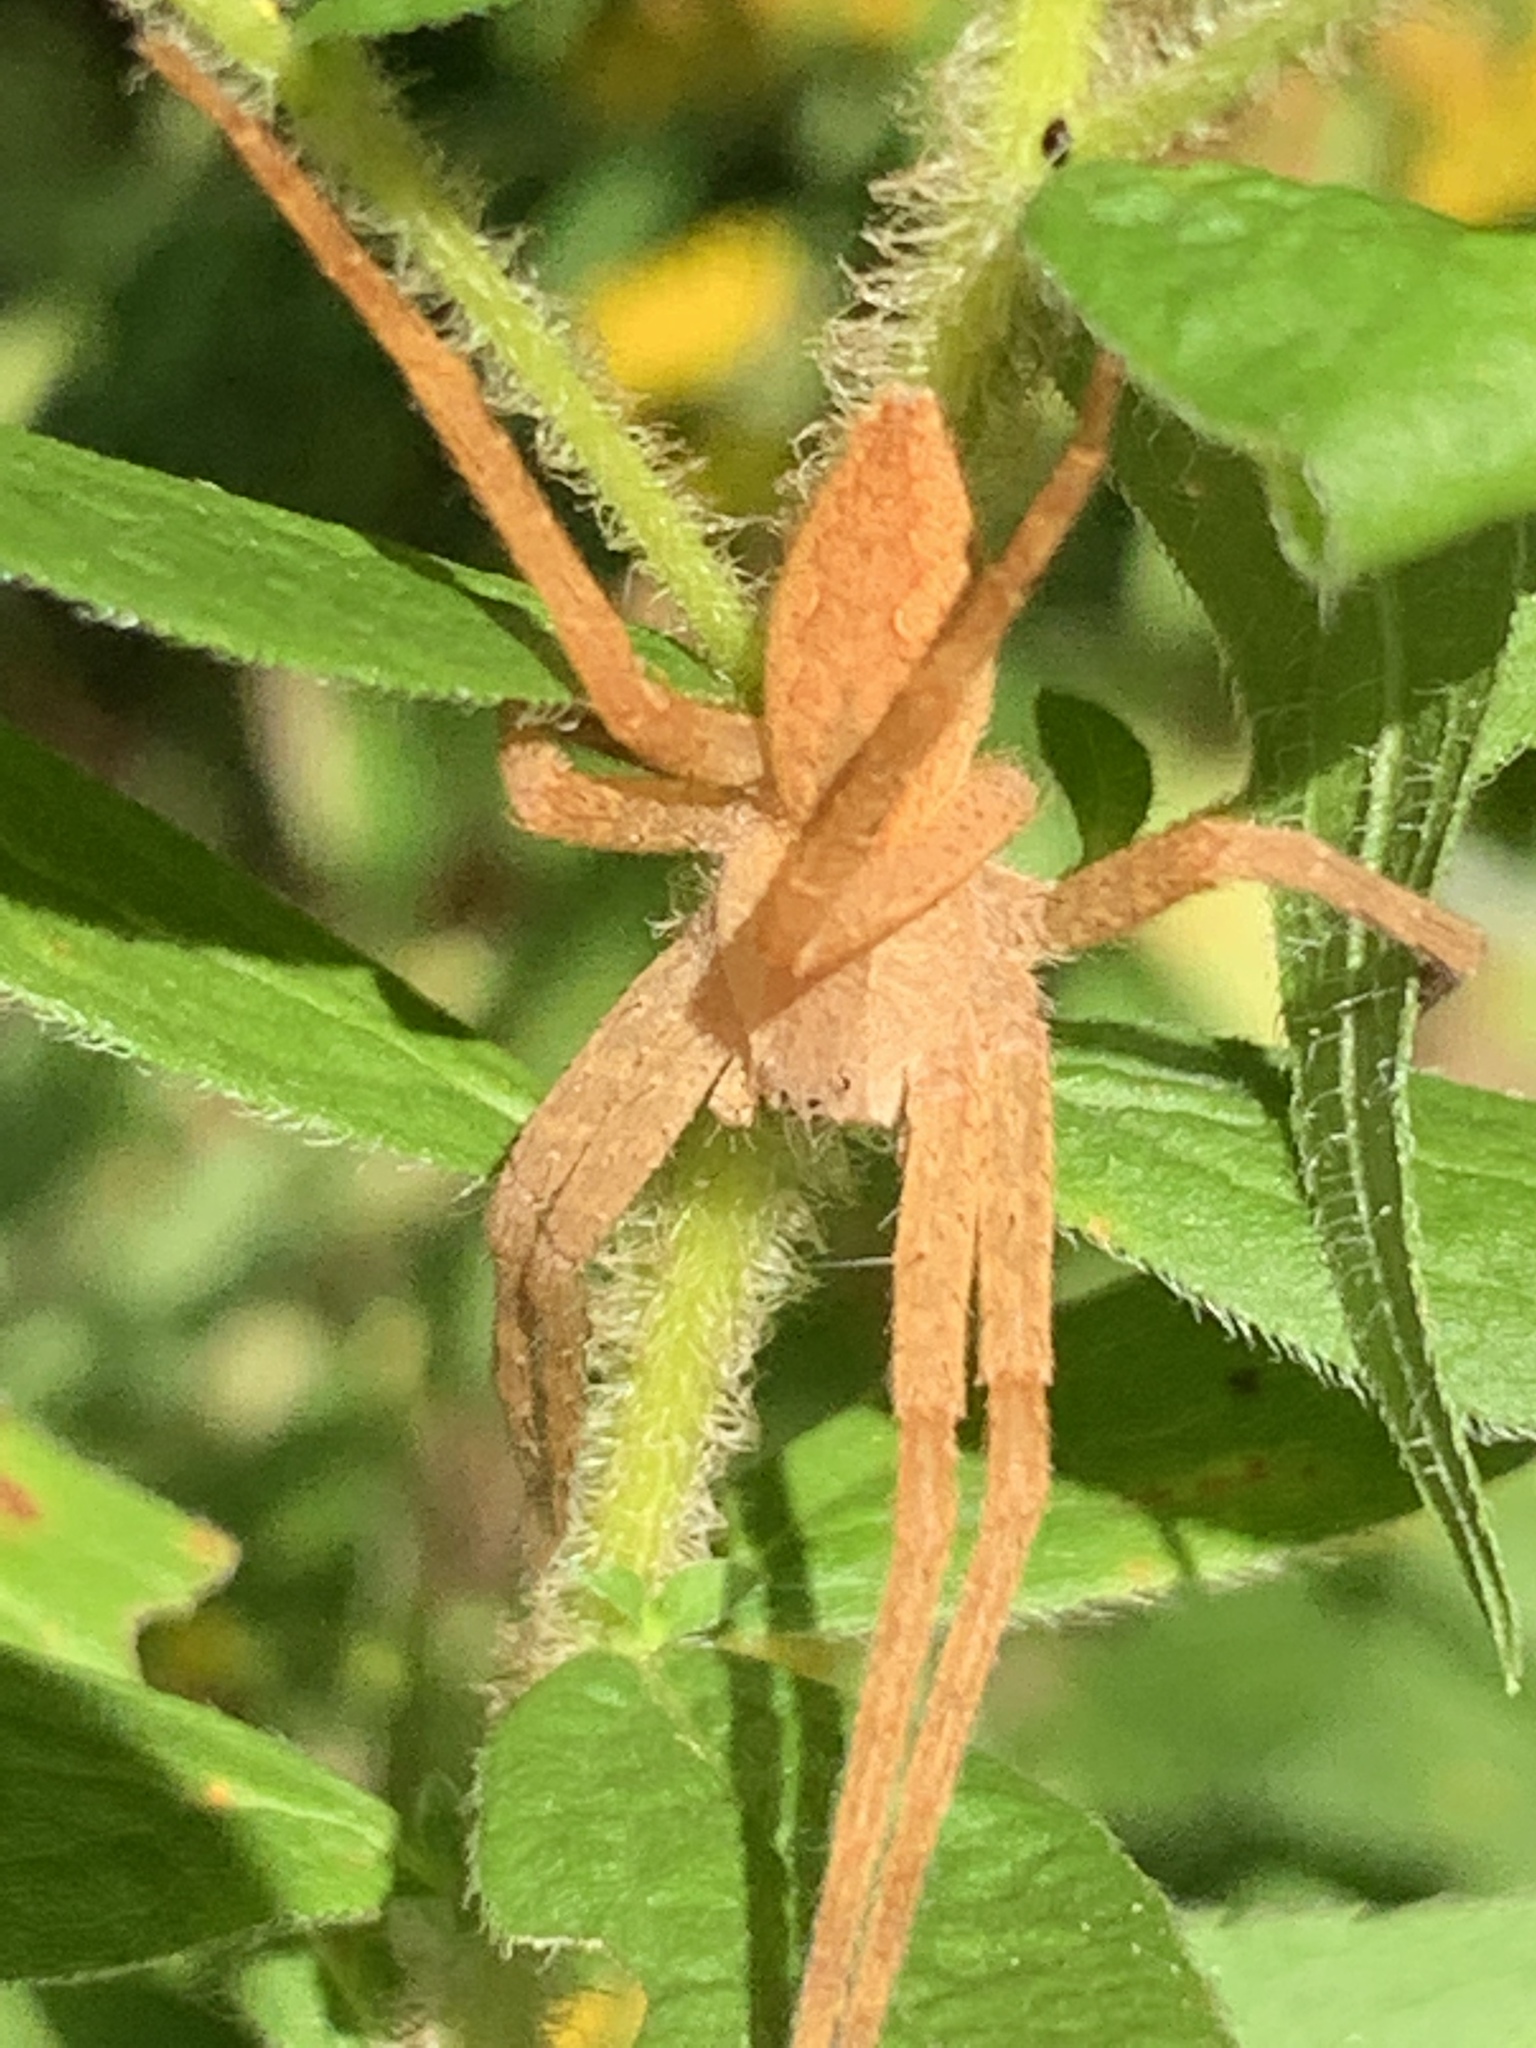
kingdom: Animalia
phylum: Arthropoda
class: Arachnida
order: Araneae
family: Pisauridae
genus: Pisaurina
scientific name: Pisaurina mira
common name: American nursery web spider
